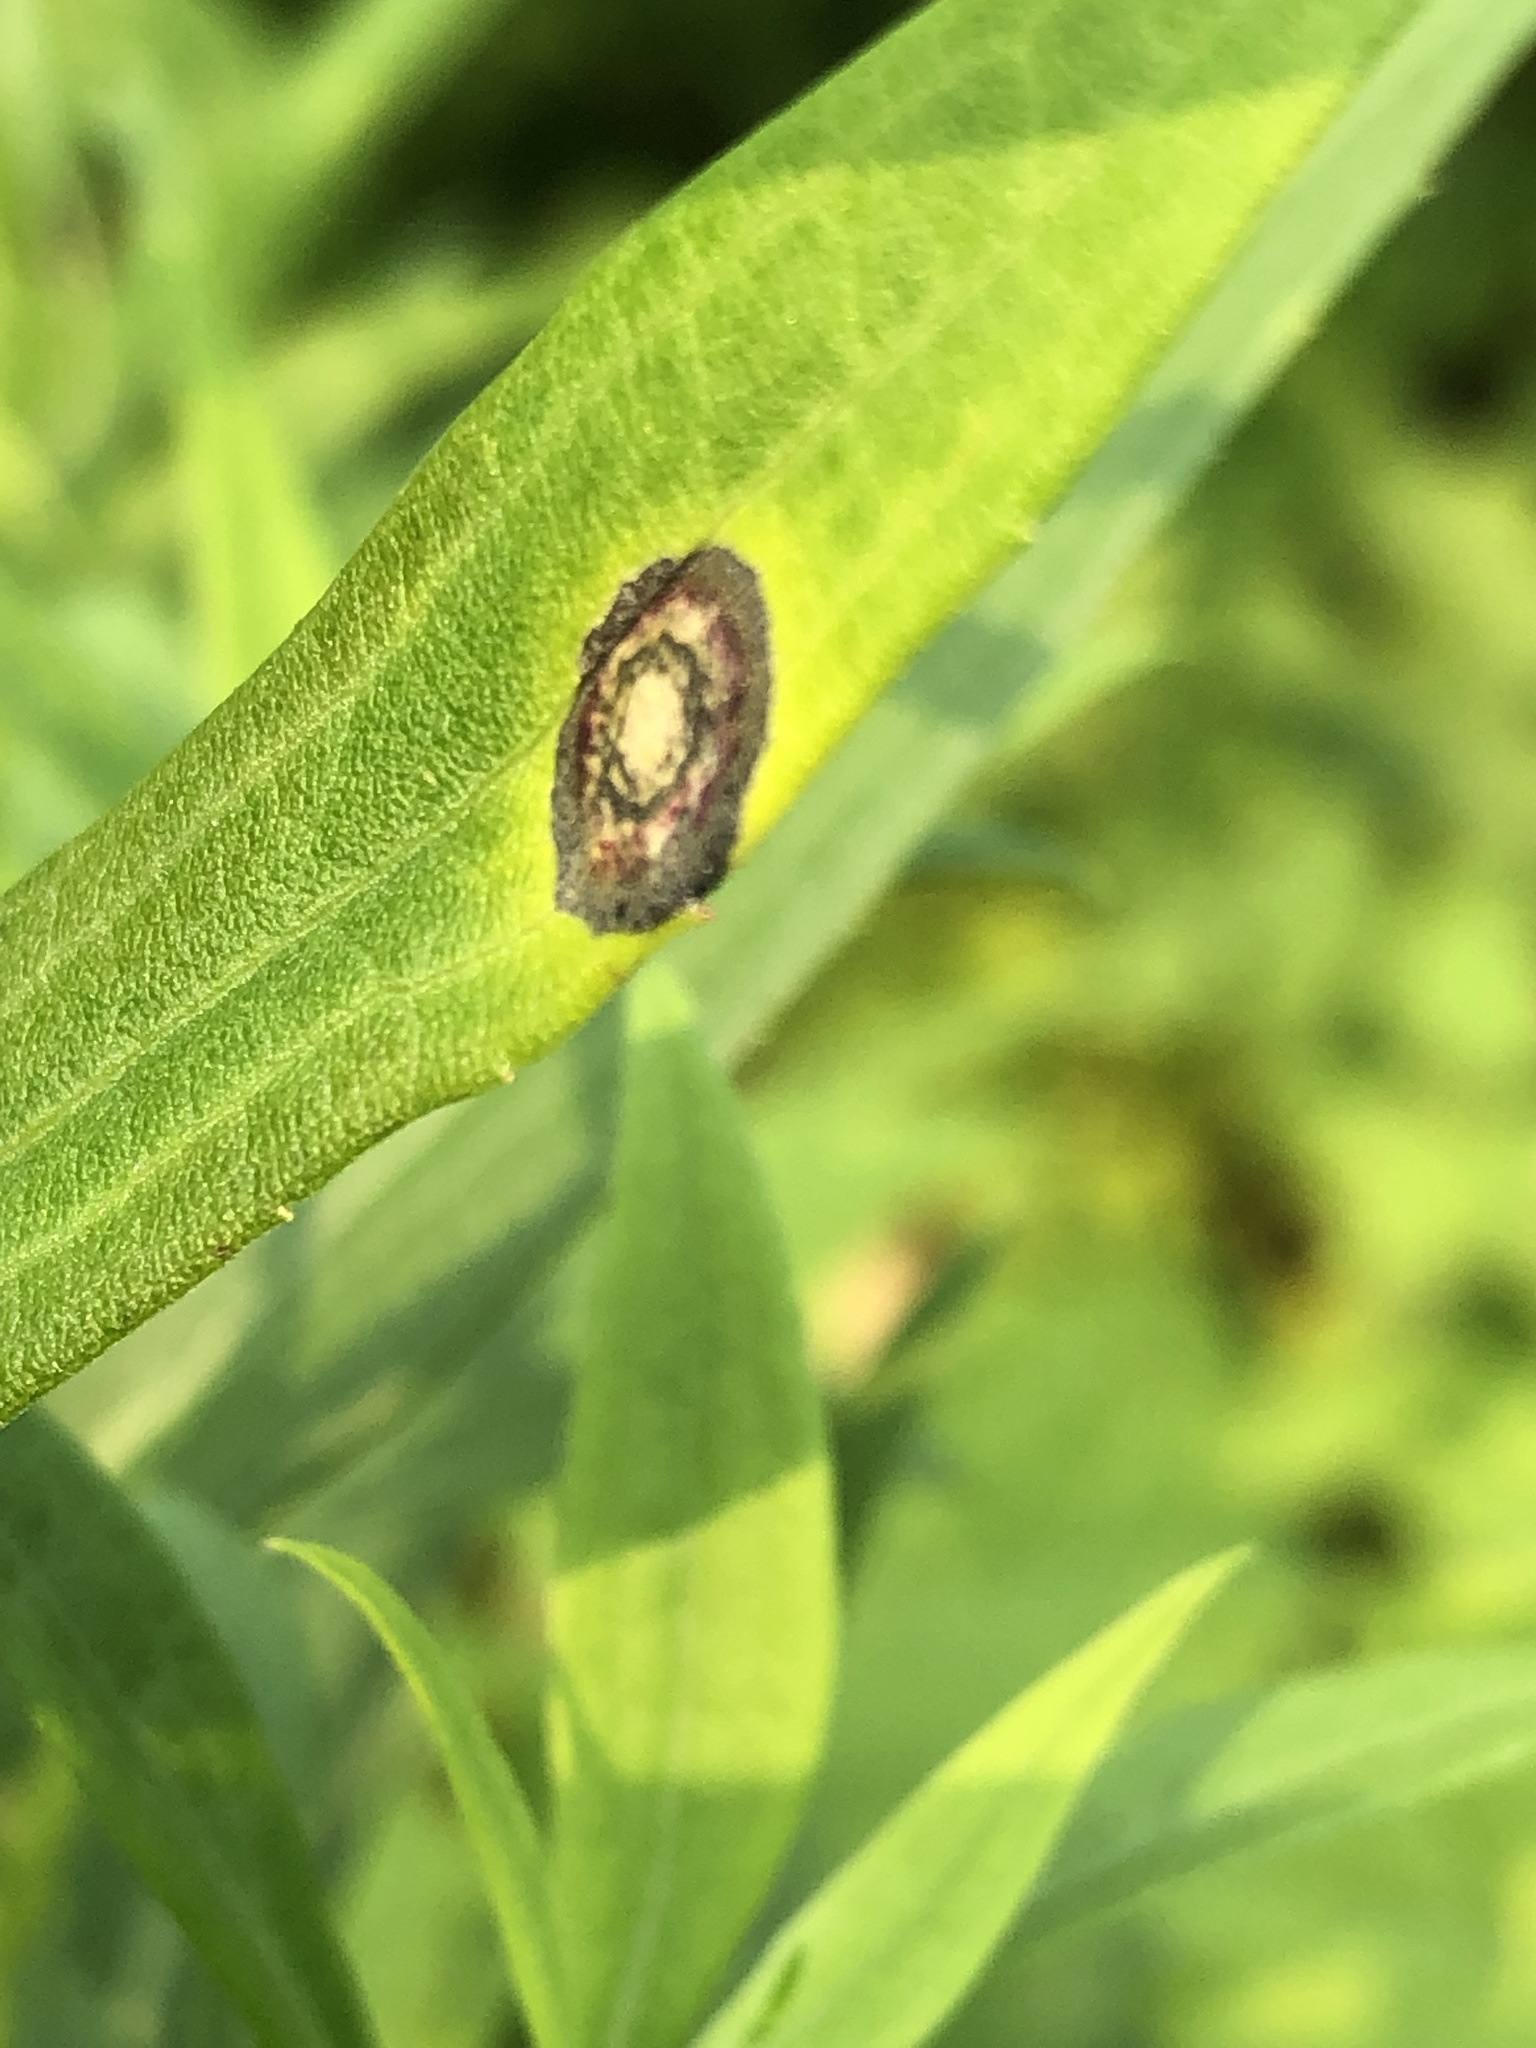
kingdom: Animalia
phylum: Arthropoda
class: Insecta
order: Diptera
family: Cecidomyiidae
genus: Asteromyia
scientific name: Asteromyia carbonifera
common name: Carbonifera goldenrod gall midge
